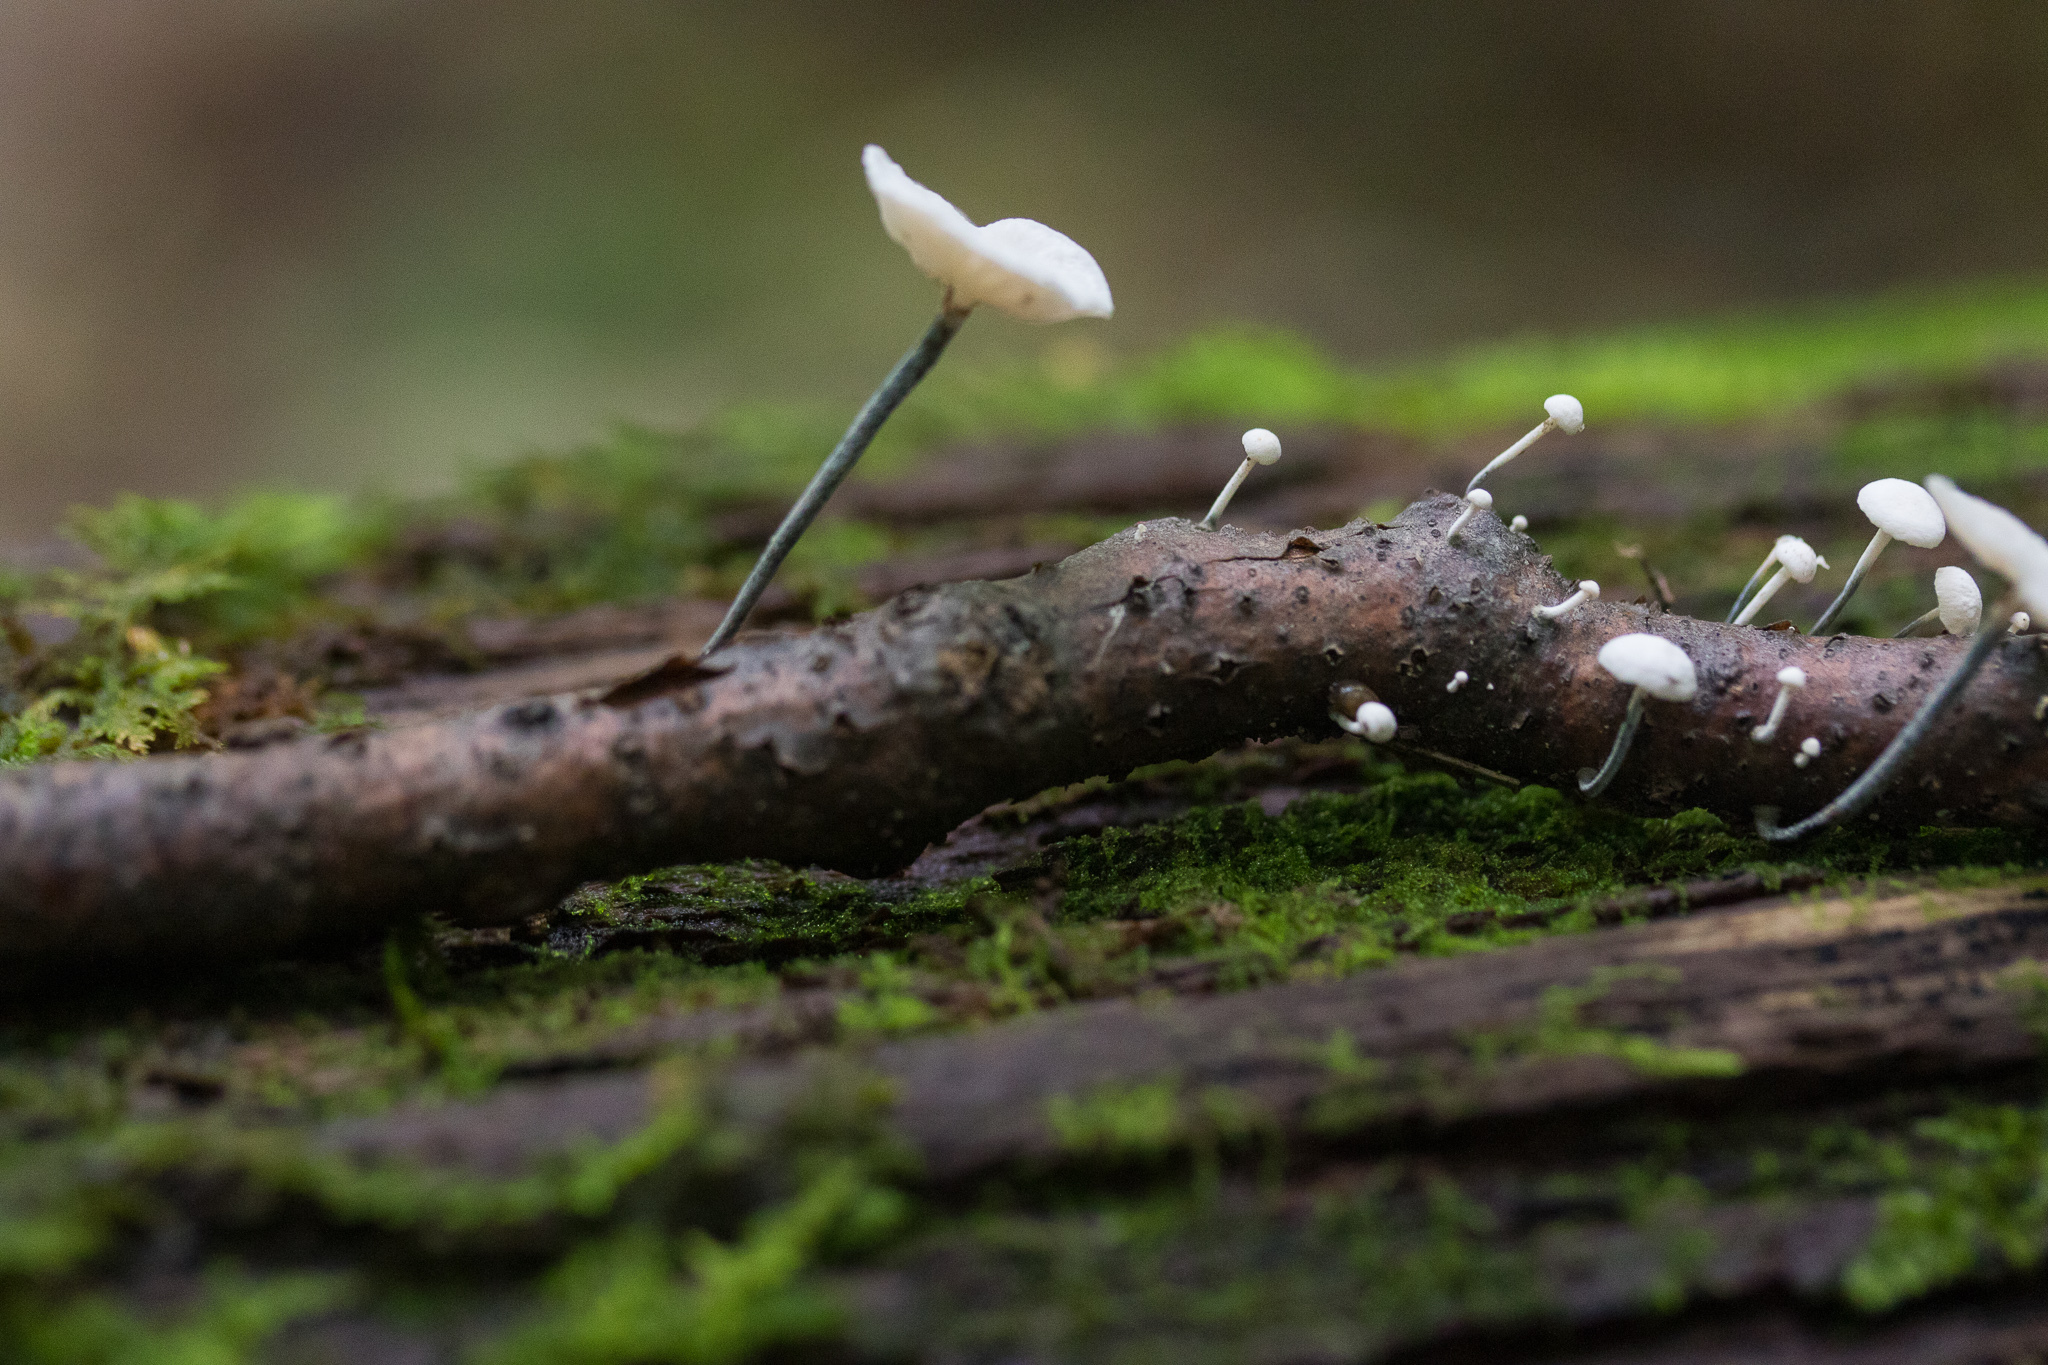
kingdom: Fungi
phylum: Basidiomycota
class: Agaricomycetes
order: Agaricales
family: Marasmiaceae
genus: Tetrapyrgos
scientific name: Tetrapyrgos nigripes
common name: Black-stalked marasmius
